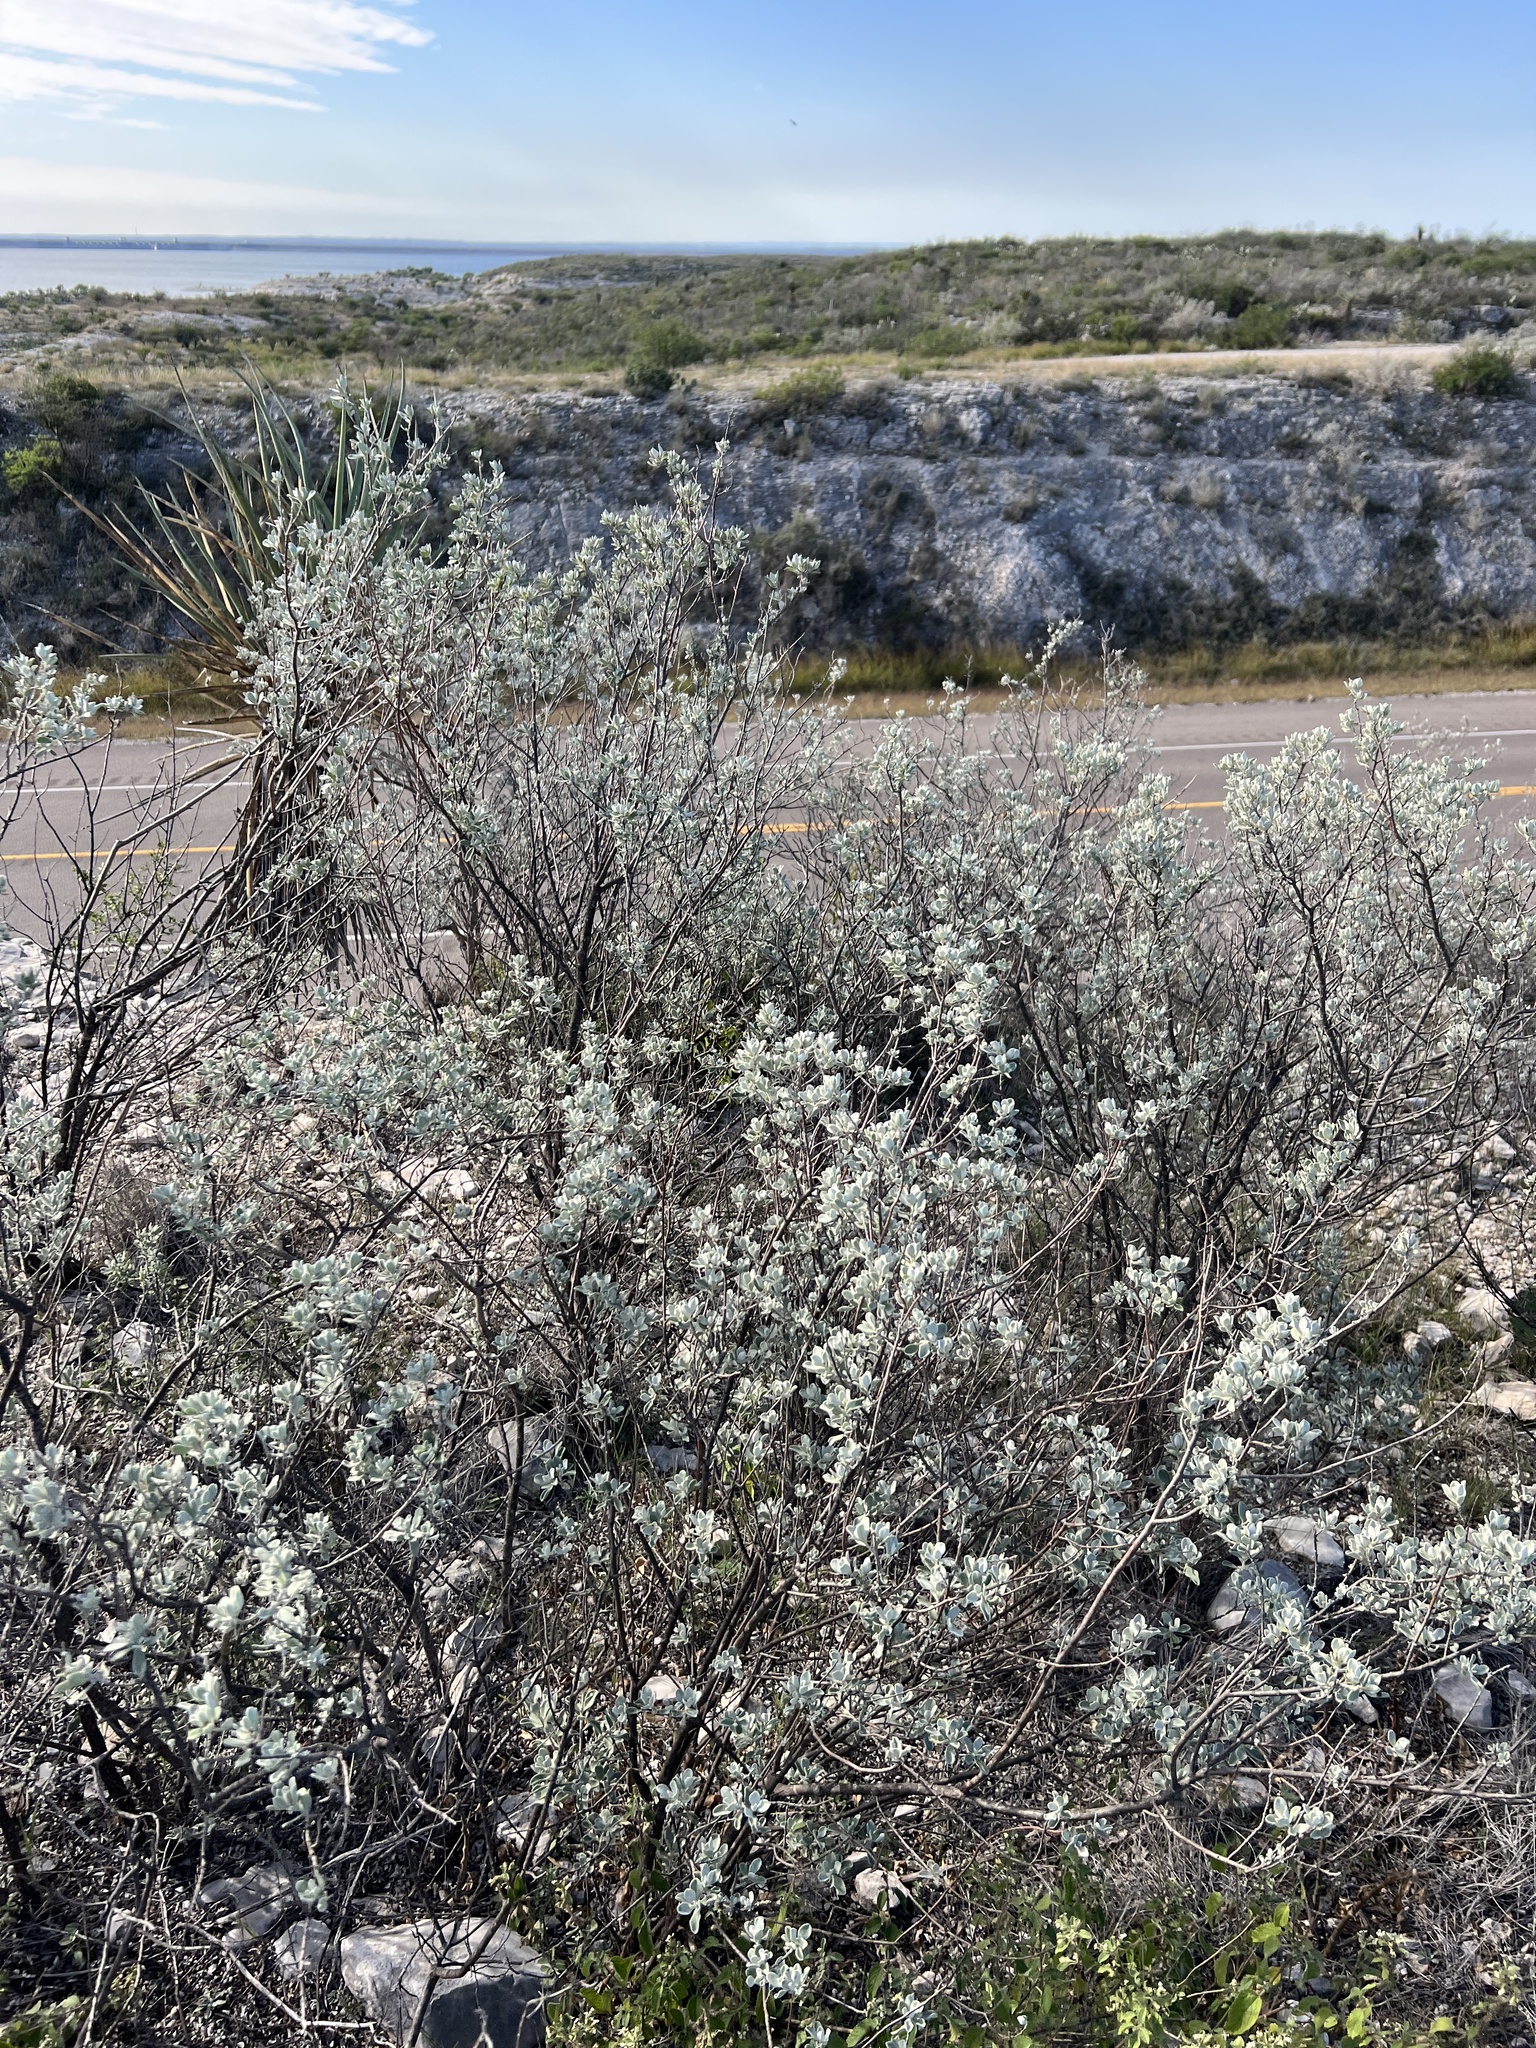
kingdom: Plantae
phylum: Tracheophyta
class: Magnoliopsida
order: Lamiales
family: Scrophulariaceae
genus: Leucophyllum
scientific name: Leucophyllum frutescens
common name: Texas silverleaf
